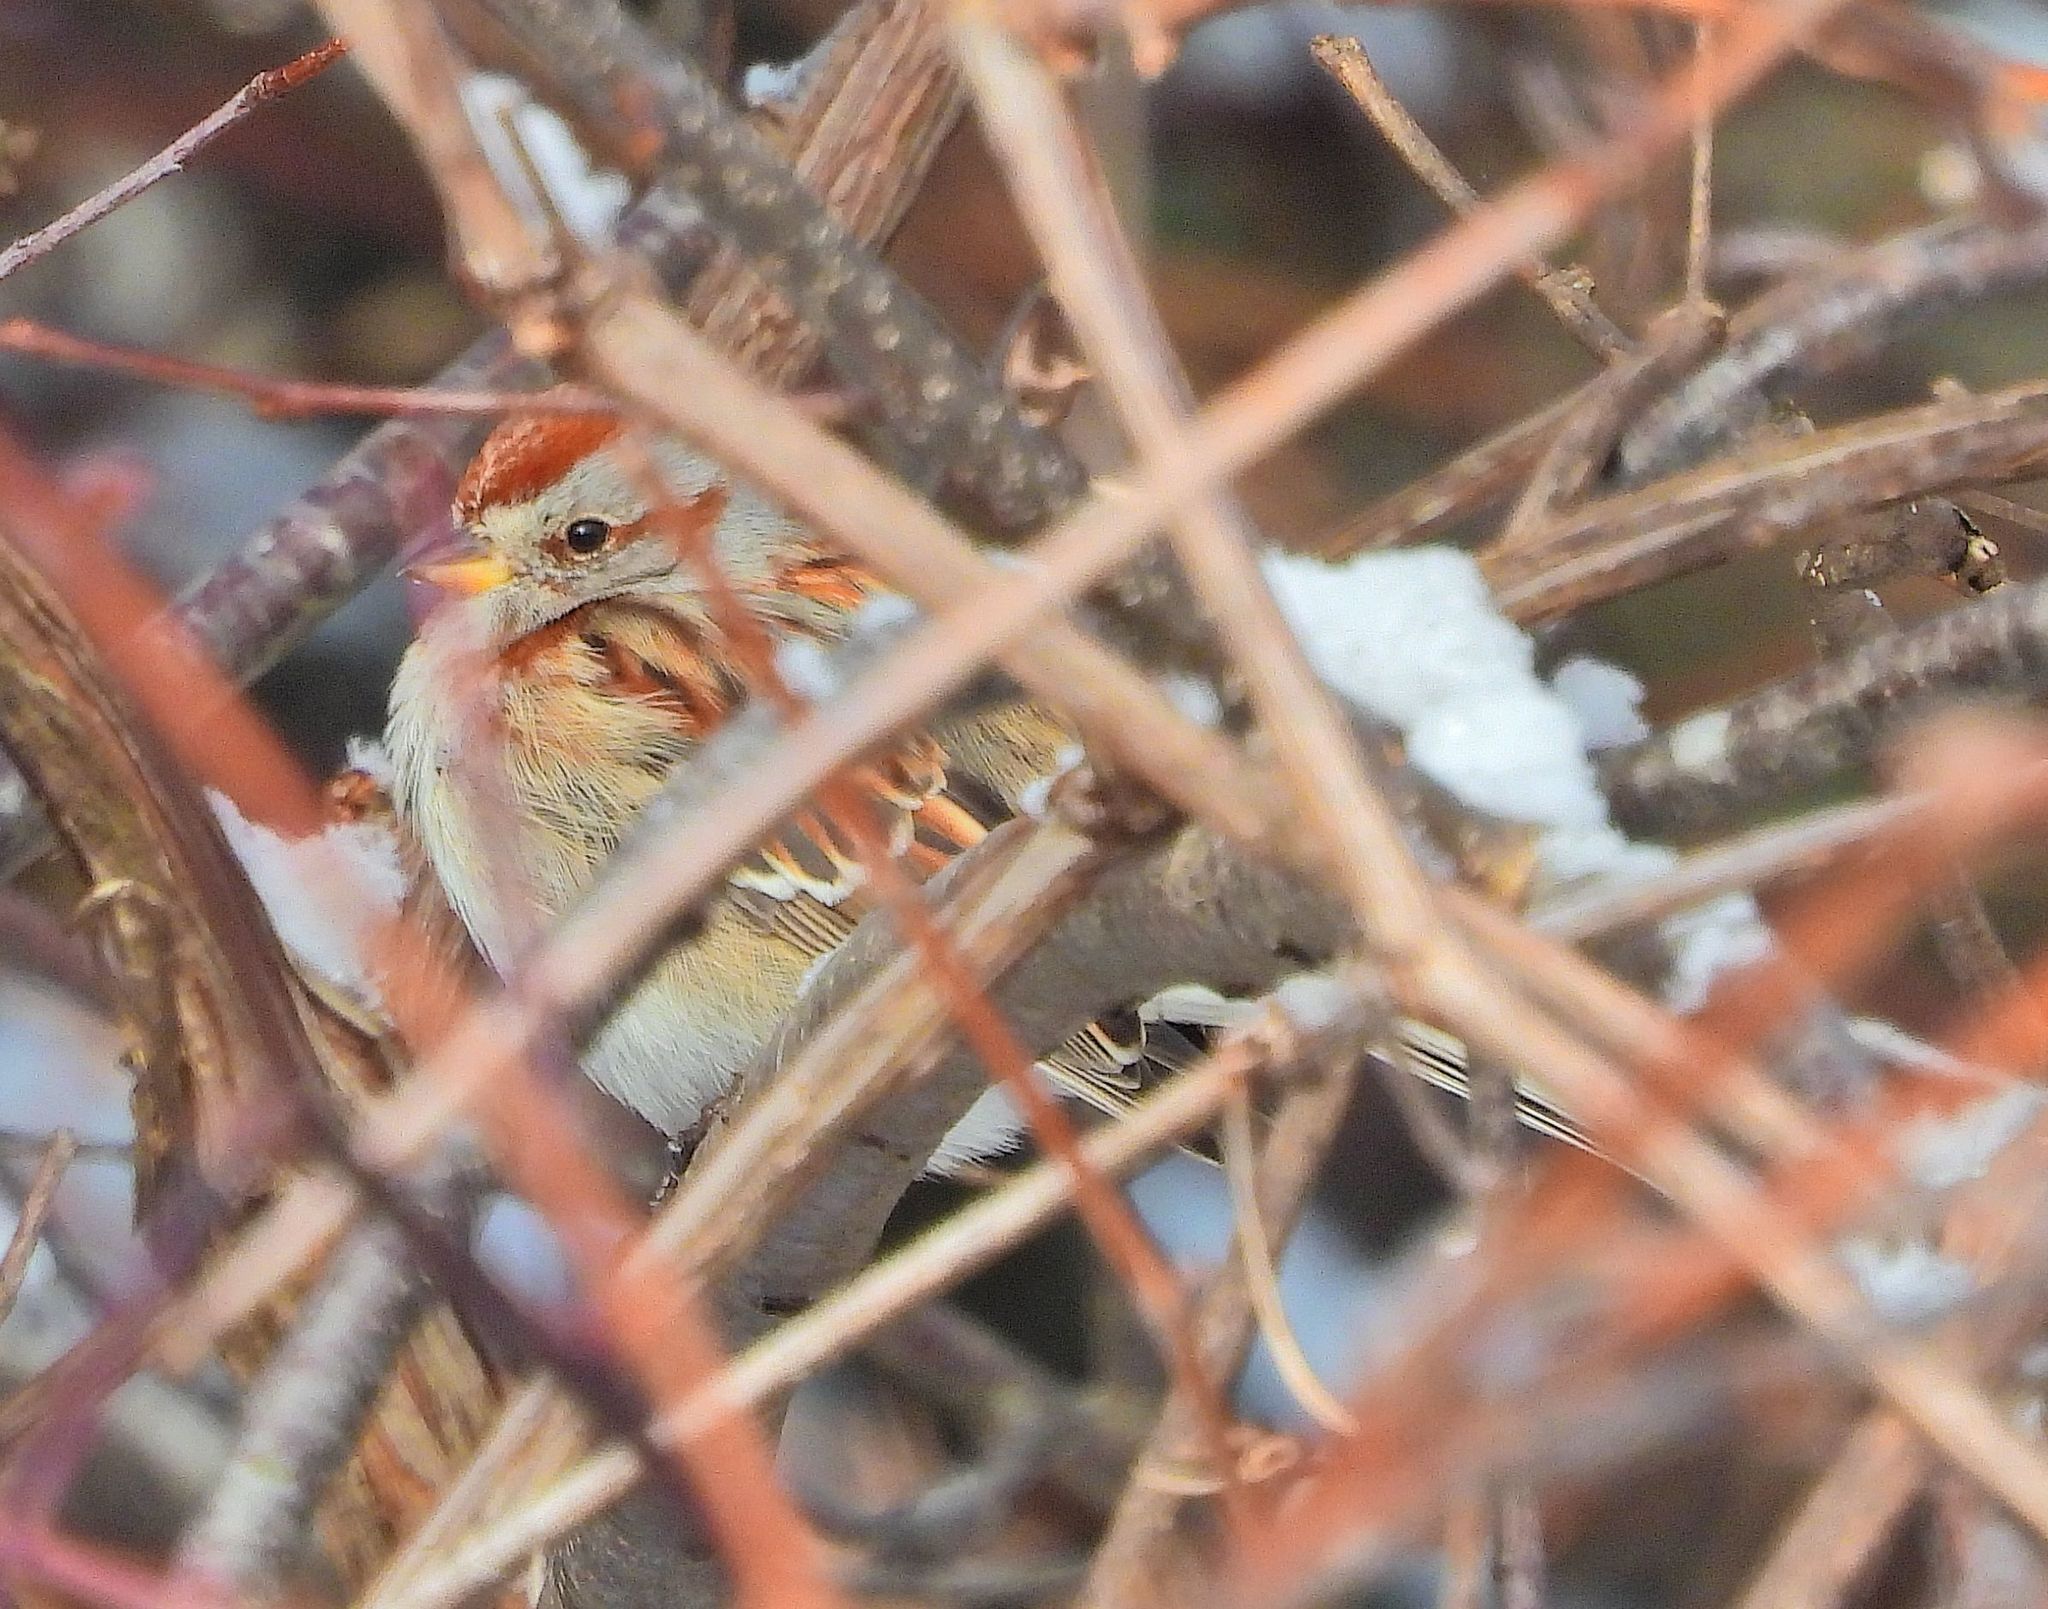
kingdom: Animalia
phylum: Chordata
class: Aves
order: Passeriformes
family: Passerellidae
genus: Spizelloides
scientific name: Spizelloides arborea
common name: American tree sparrow
